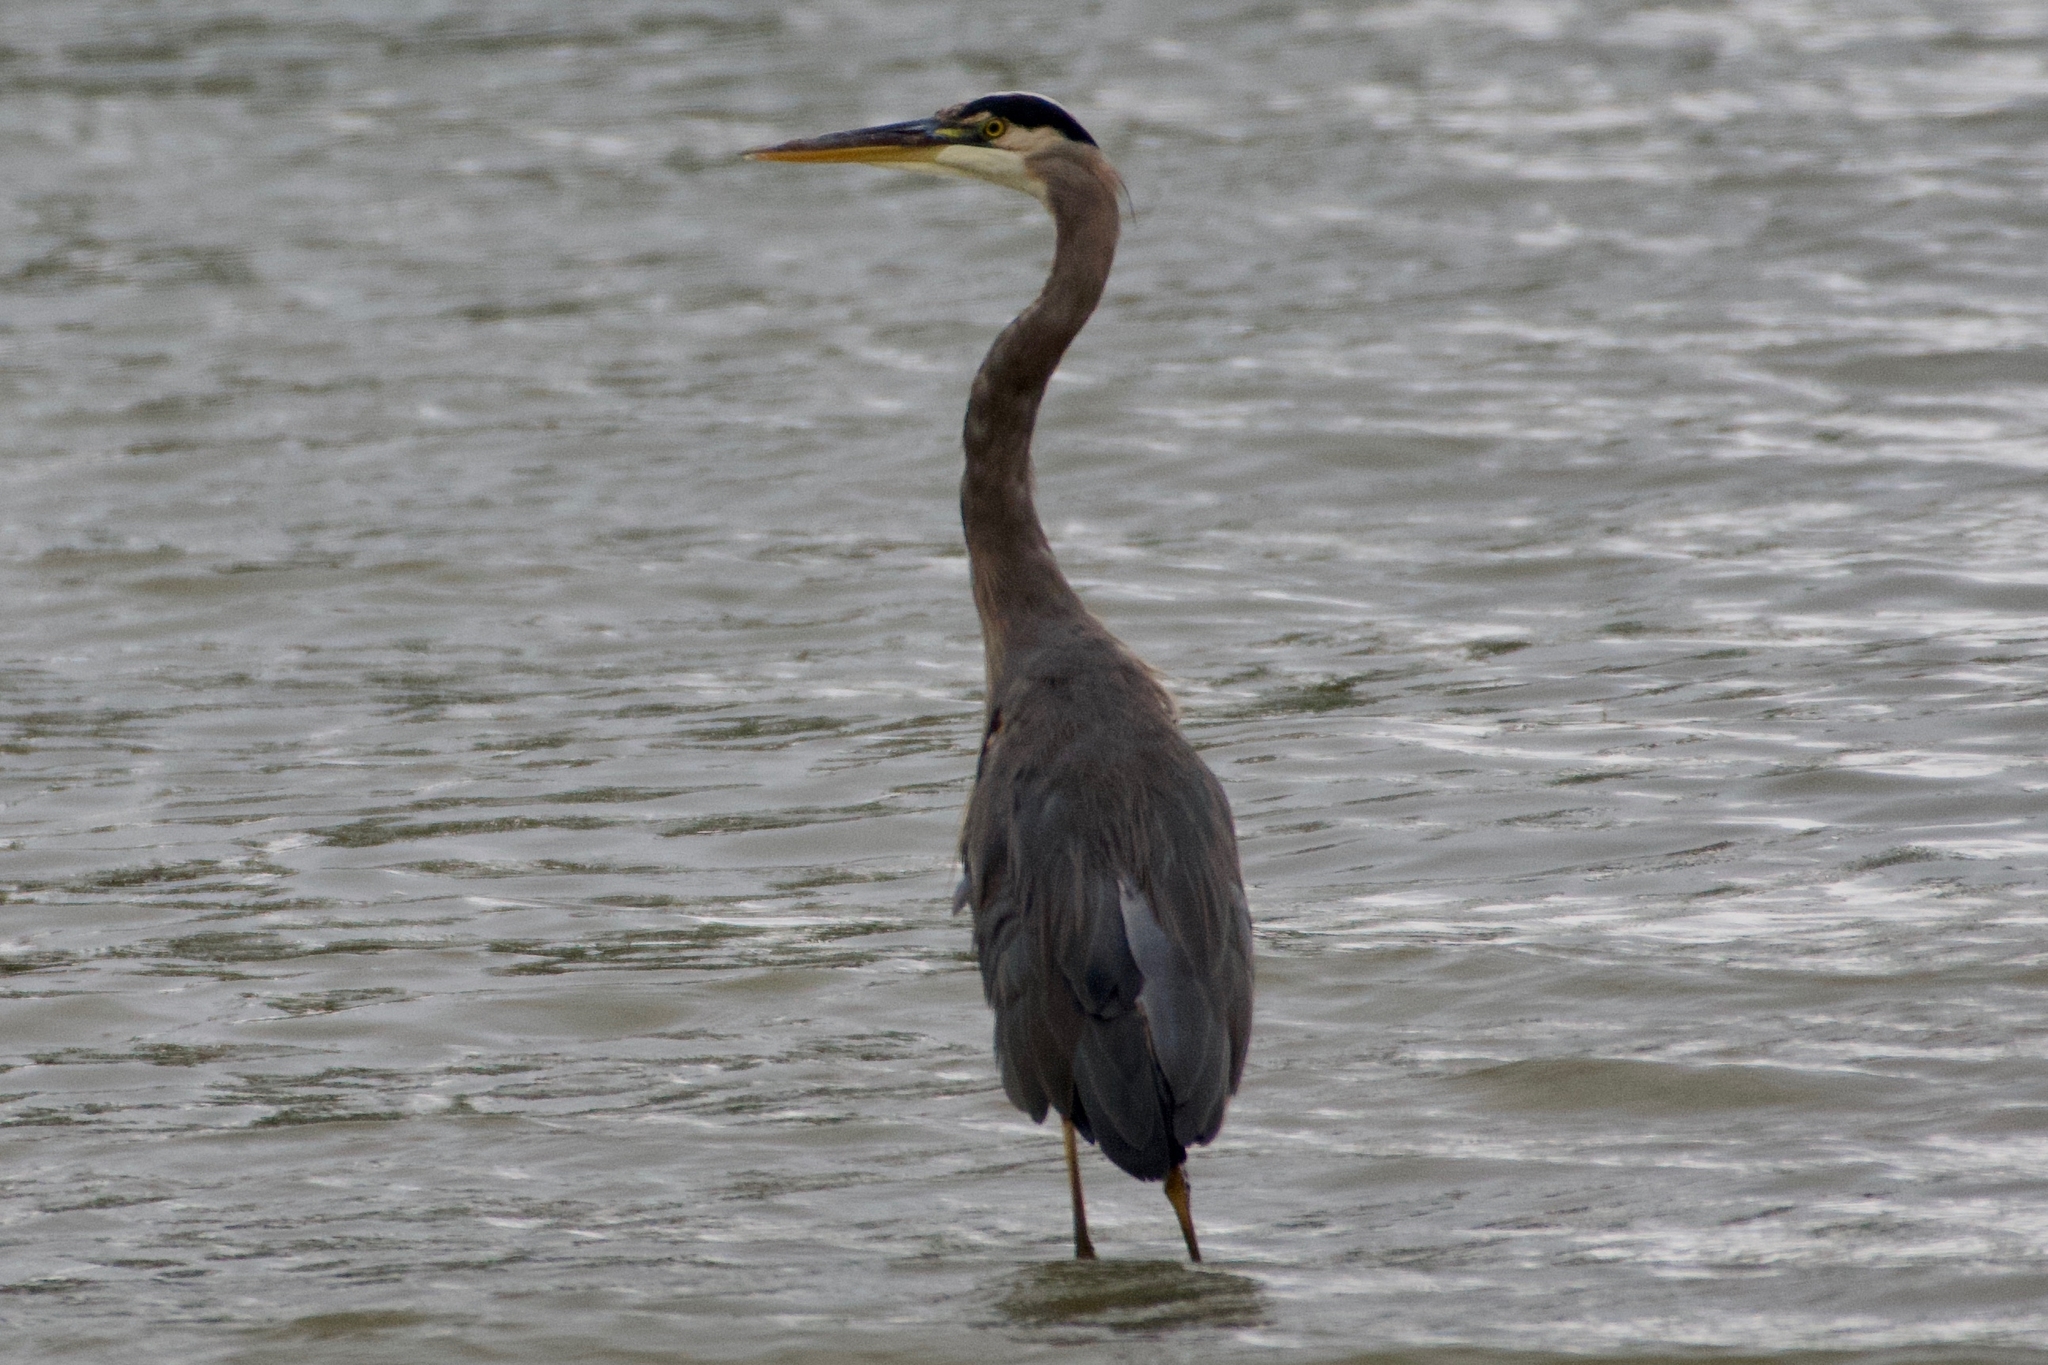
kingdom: Animalia
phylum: Chordata
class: Aves
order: Pelecaniformes
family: Ardeidae
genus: Ardea
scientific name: Ardea herodias
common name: Great blue heron
